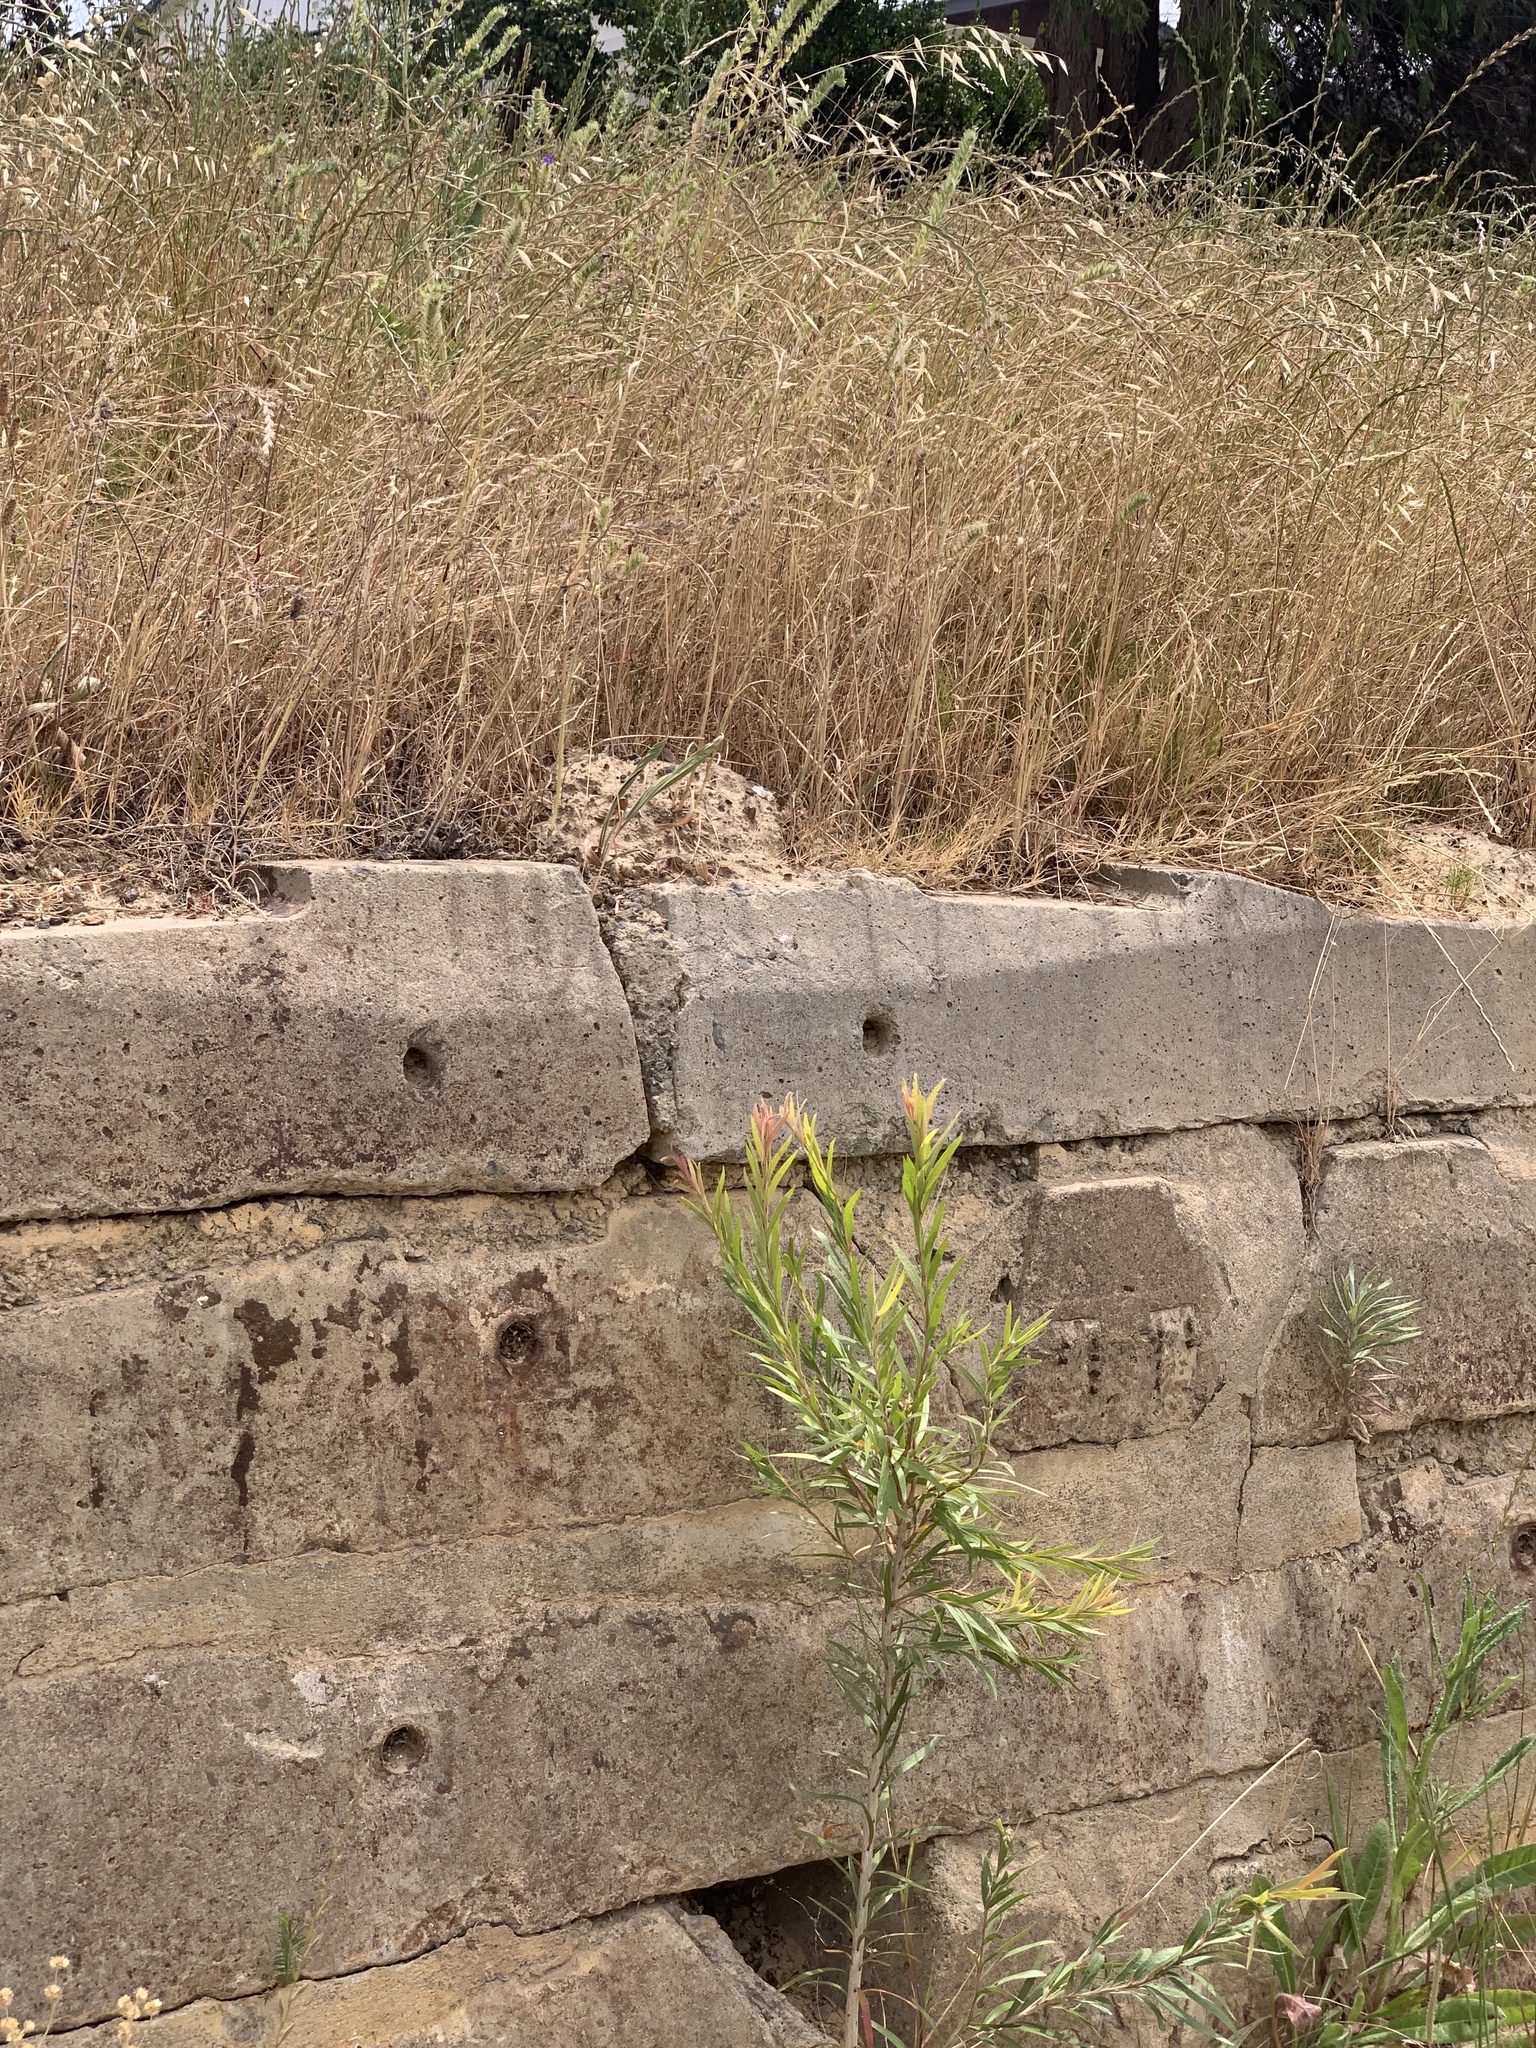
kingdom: Plantae
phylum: Tracheophyta
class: Magnoliopsida
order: Myrtales
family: Myrtaceae
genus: Callistemon
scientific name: Callistemon viminalis
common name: Drooping bottlebrush
